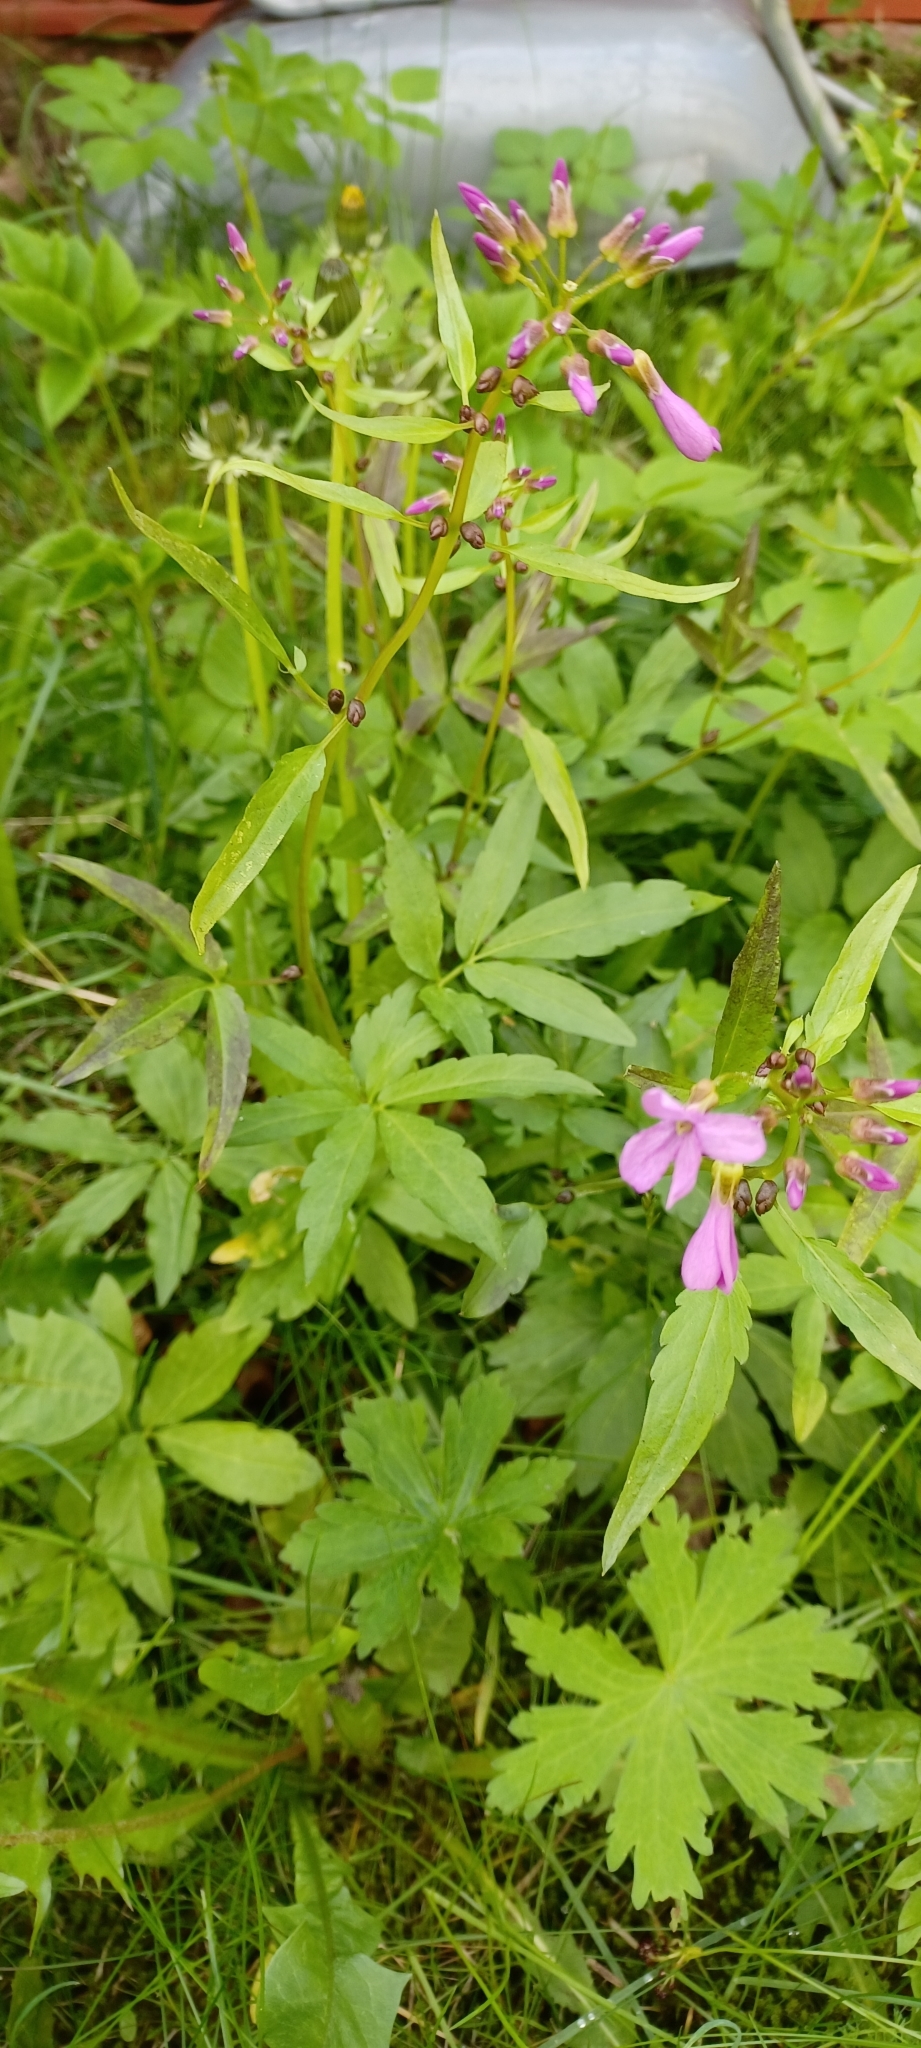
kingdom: Plantae
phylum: Tracheophyta
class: Magnoliopsida
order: Brassicales
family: Brassicaceae
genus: Cardamine
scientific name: Cardamine bulbifera
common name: Coralroot bittercress
